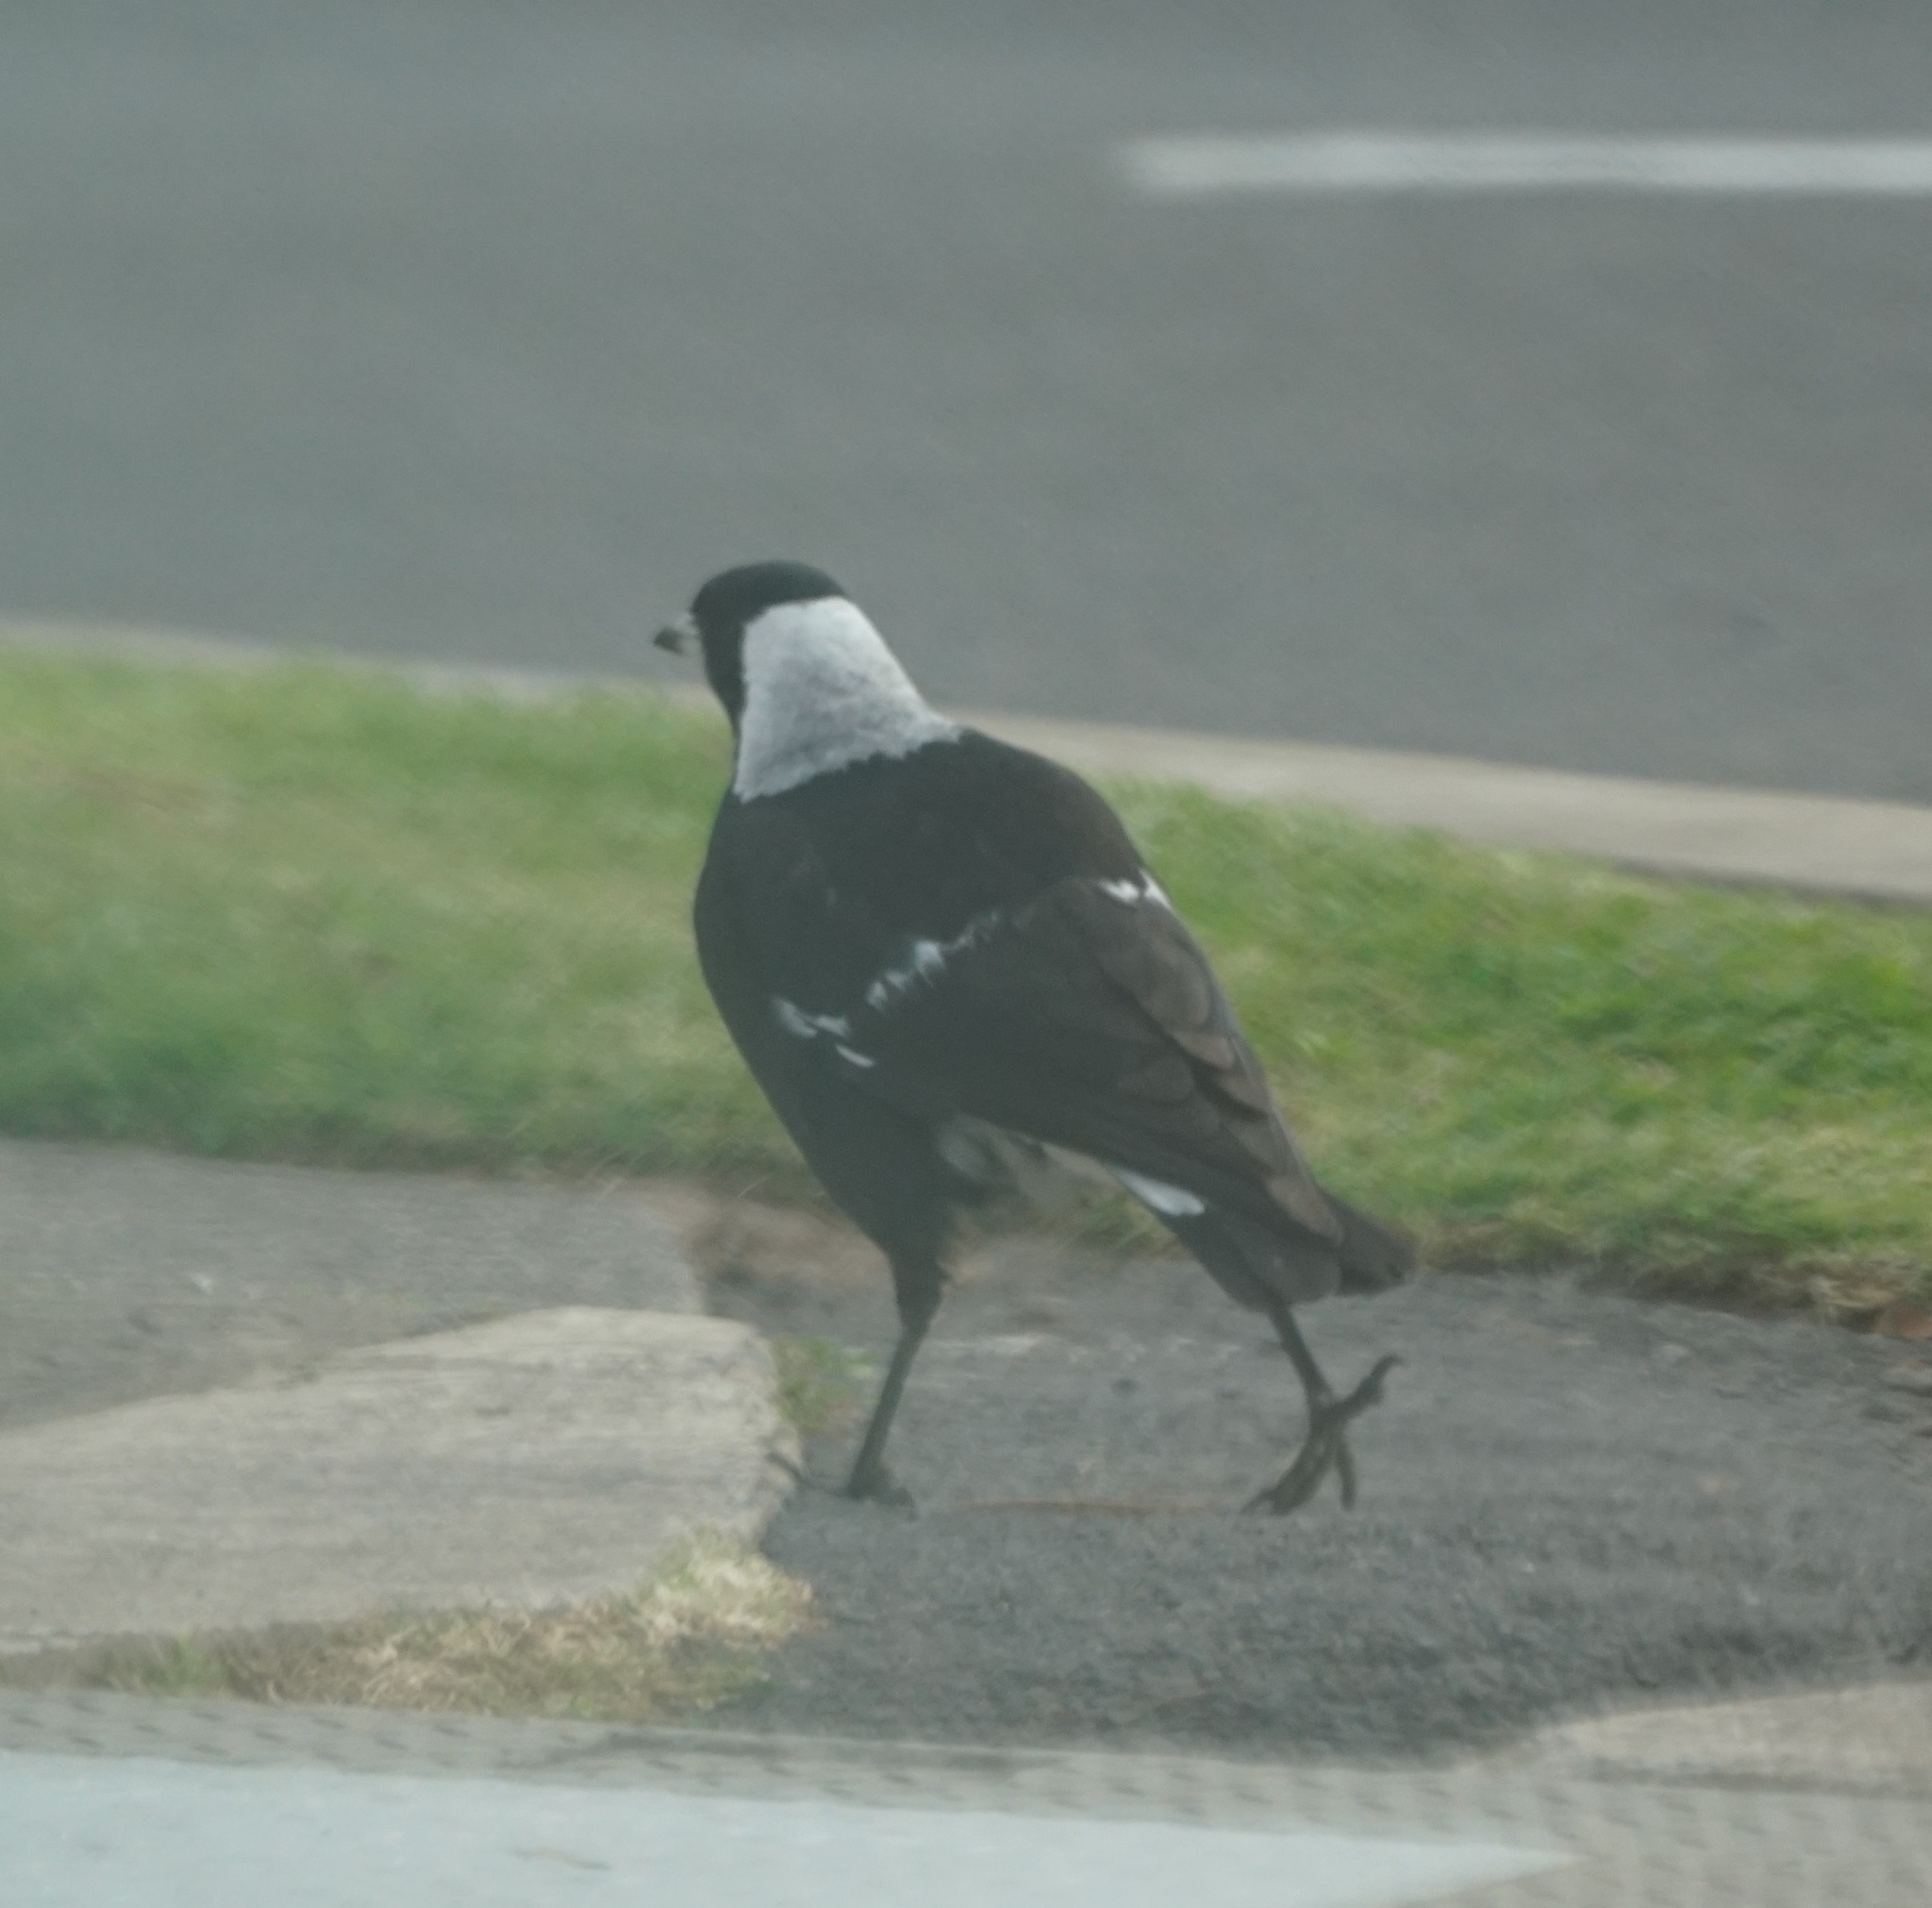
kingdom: Animalia
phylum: Chordata
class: Aves
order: Passeriformes
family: Cracticidae
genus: Gymnorhina
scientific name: Gymnorhina tibicen
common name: Australian magpie
